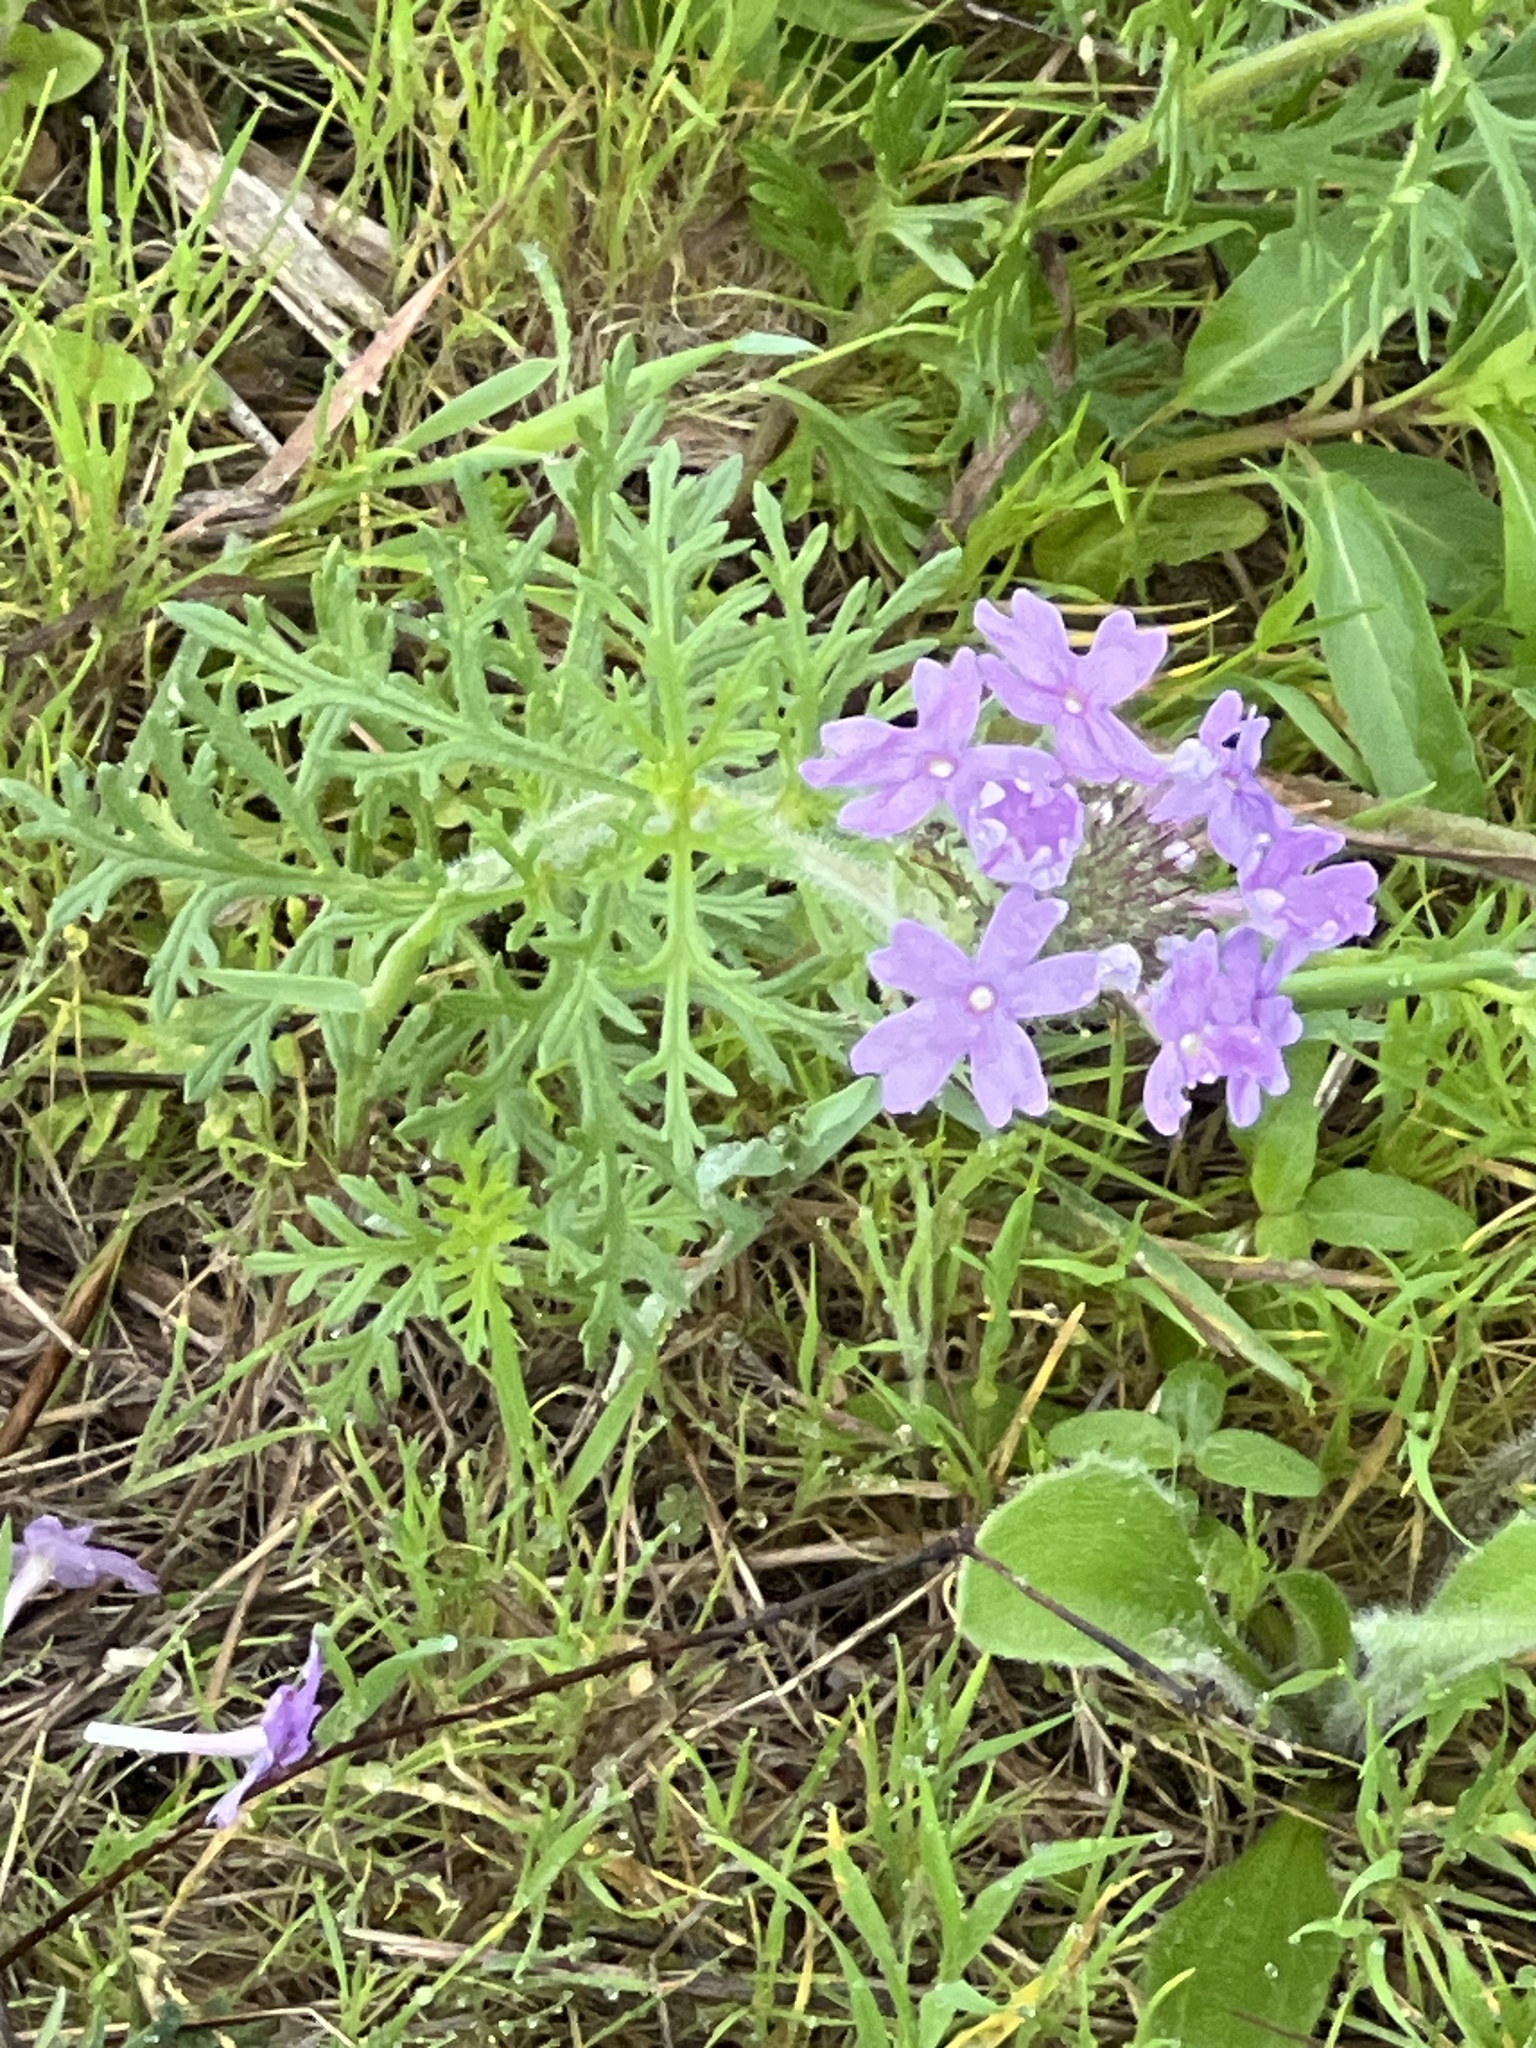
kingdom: Plantae
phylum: Tracheophyta
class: Magnoliopsida
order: Lamiales
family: Verbenaceae
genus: Verbena
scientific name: Verbena bipinnatifida
